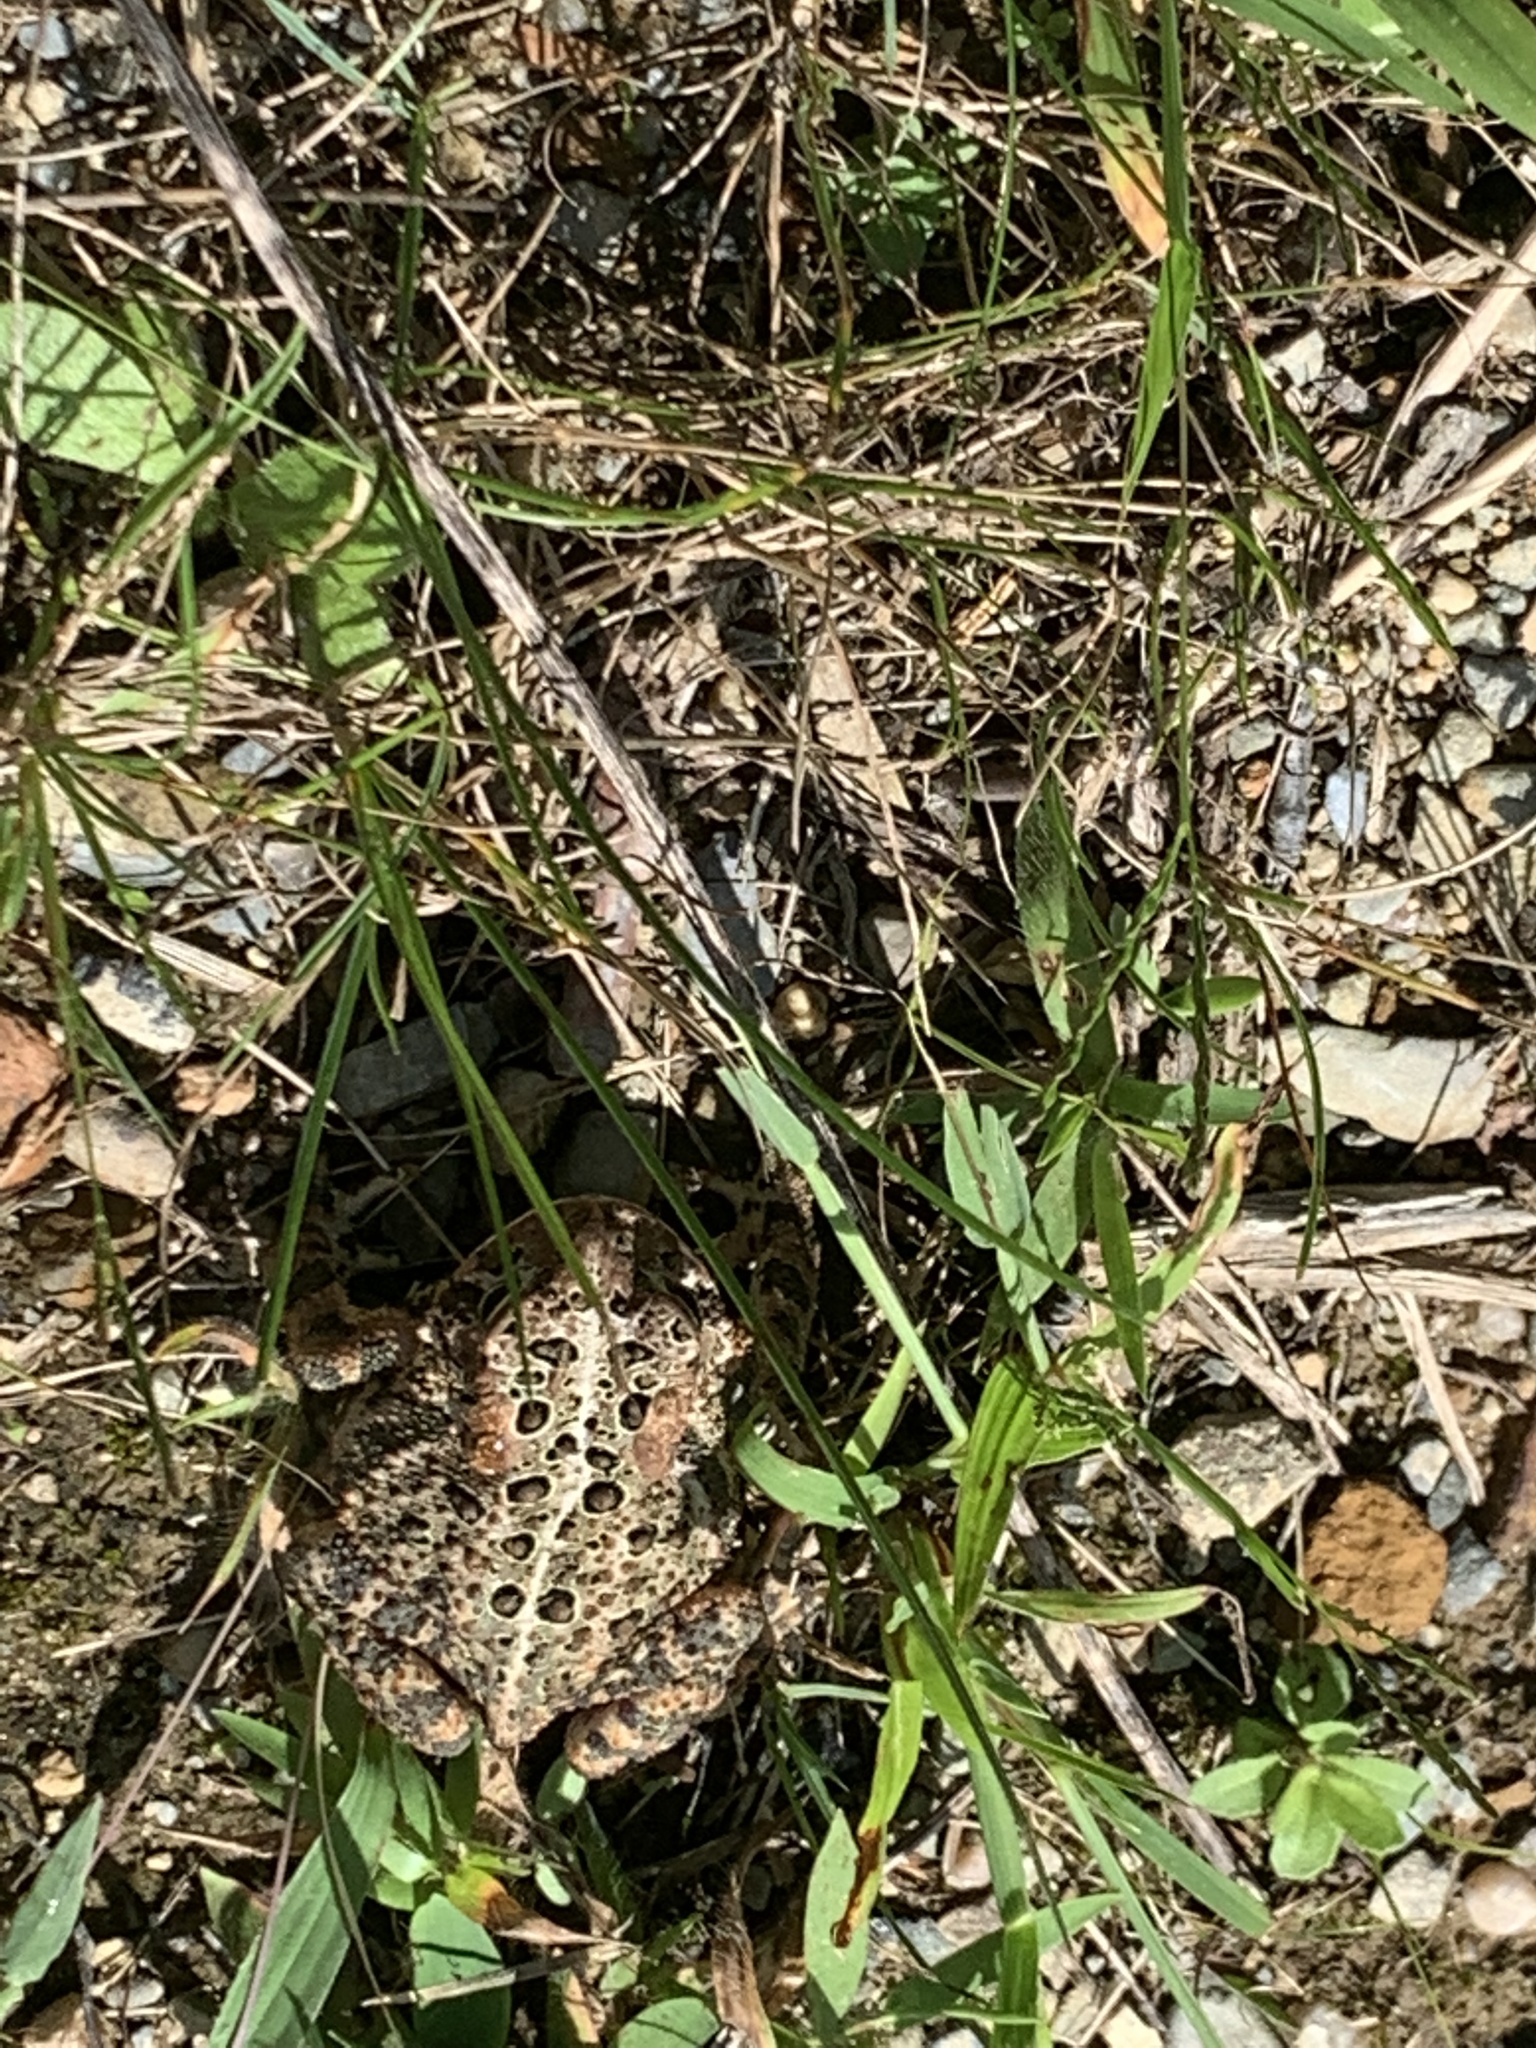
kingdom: Animalia
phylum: Chordata
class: Amphibia
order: Anura
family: Bufonidae
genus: Anaxyrus
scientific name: Anaxyrus americanus
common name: American toad
